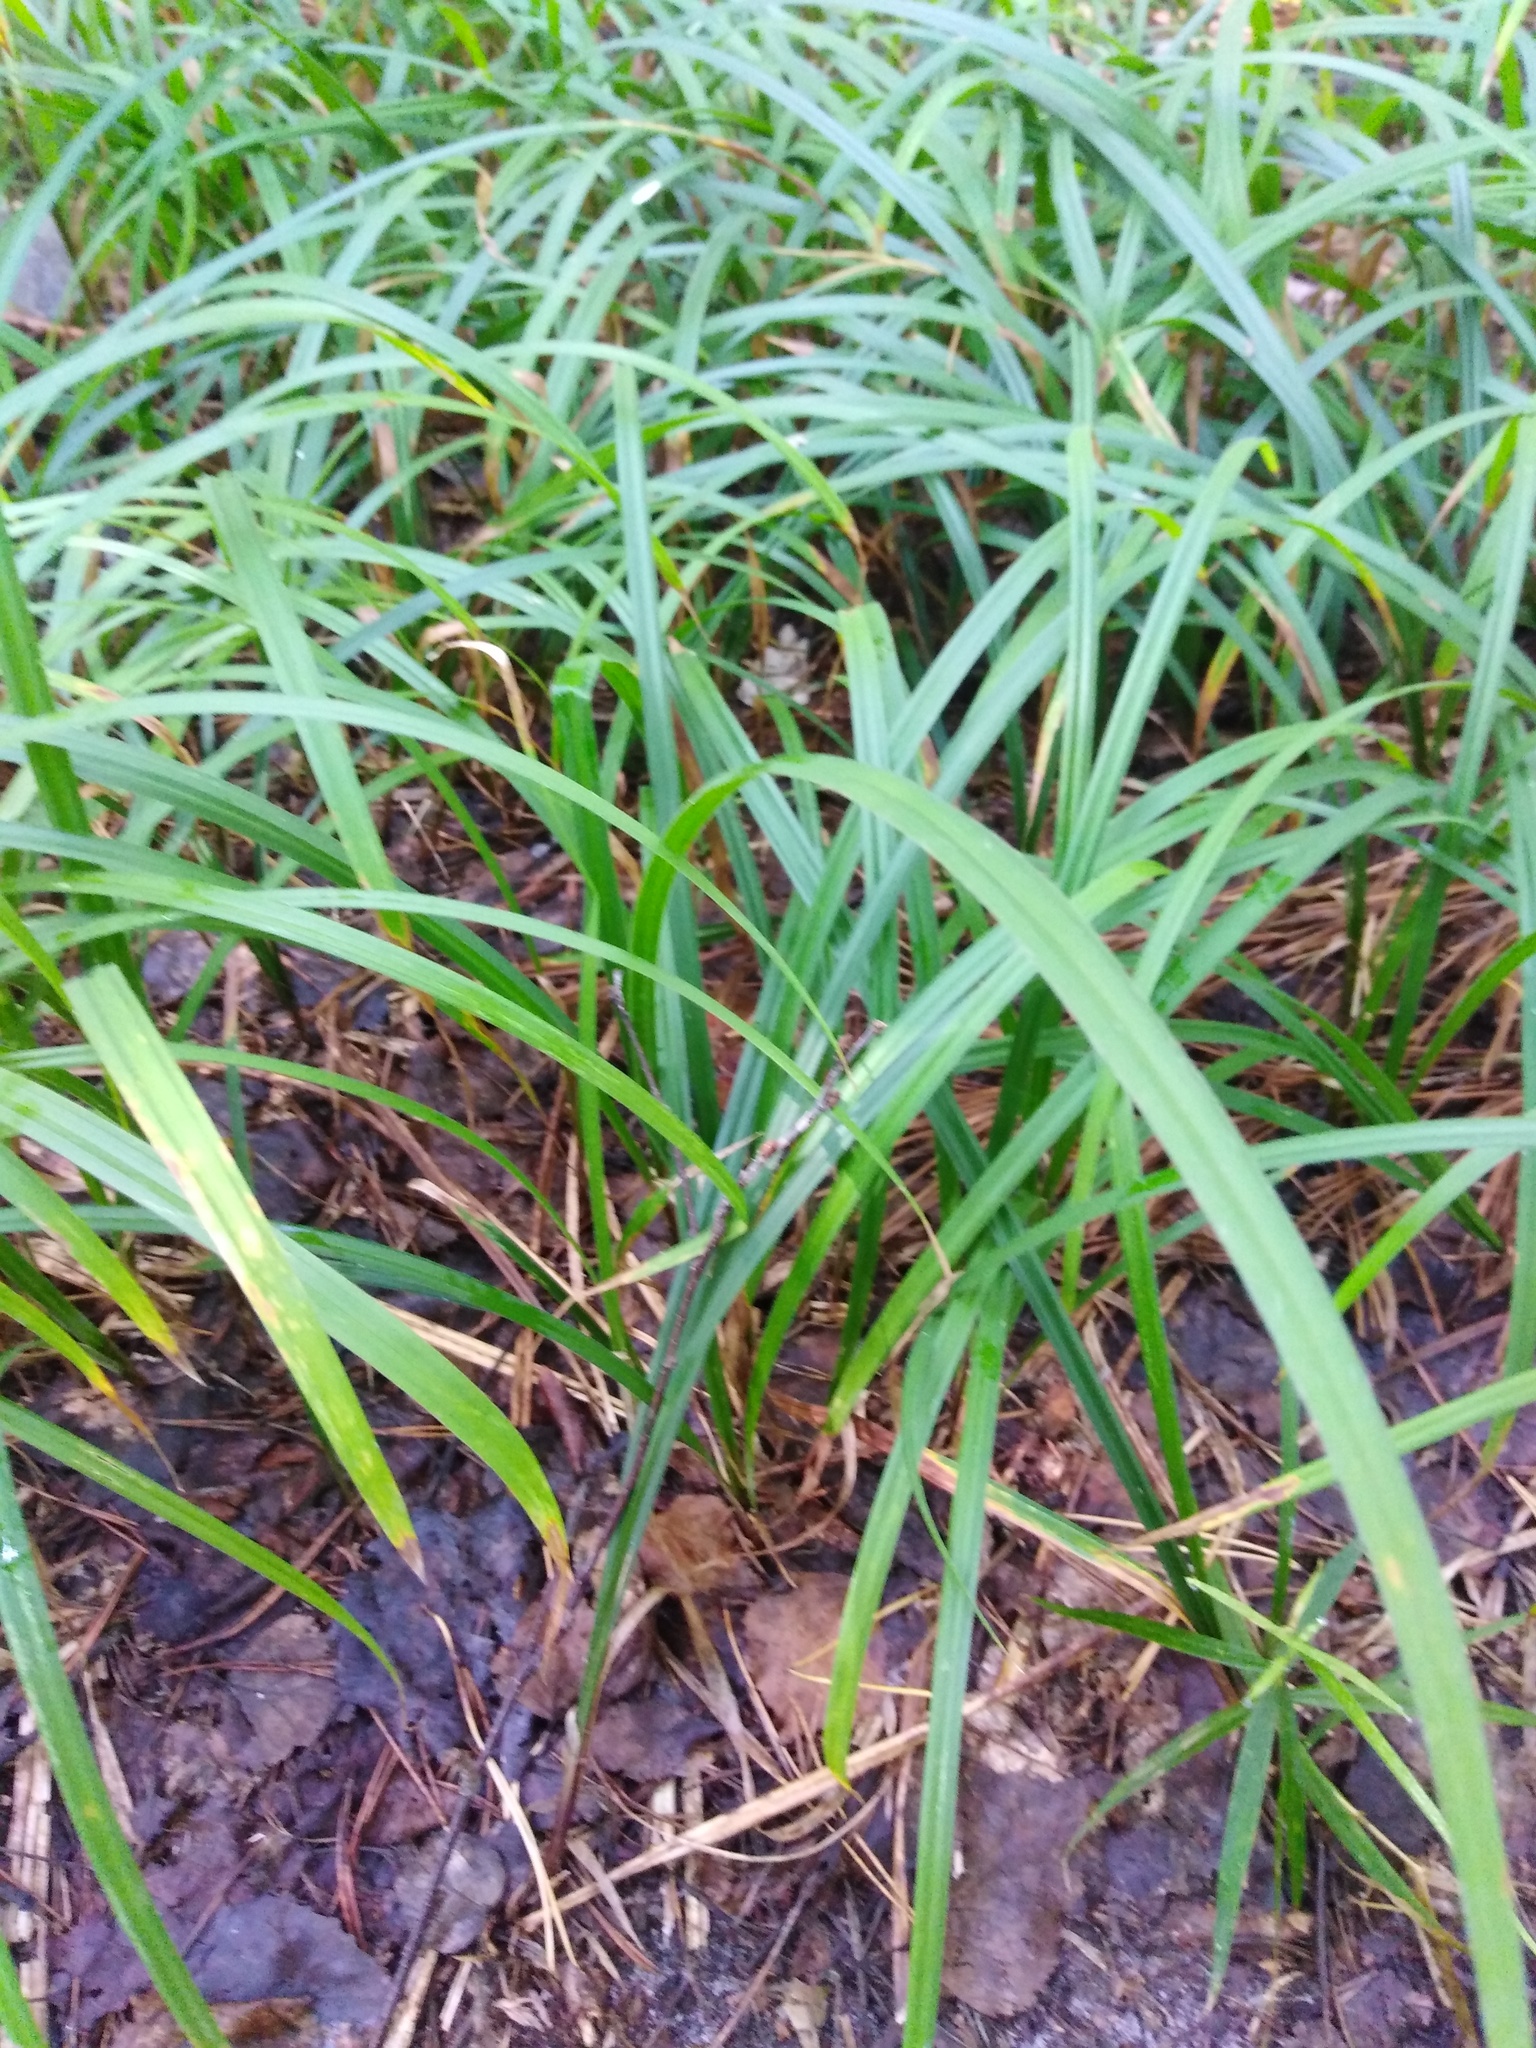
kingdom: Plantae
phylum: Tracheophyta
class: Liliopsida
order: Poales
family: Cyperaceae
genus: Carex
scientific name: Carex pilosa
